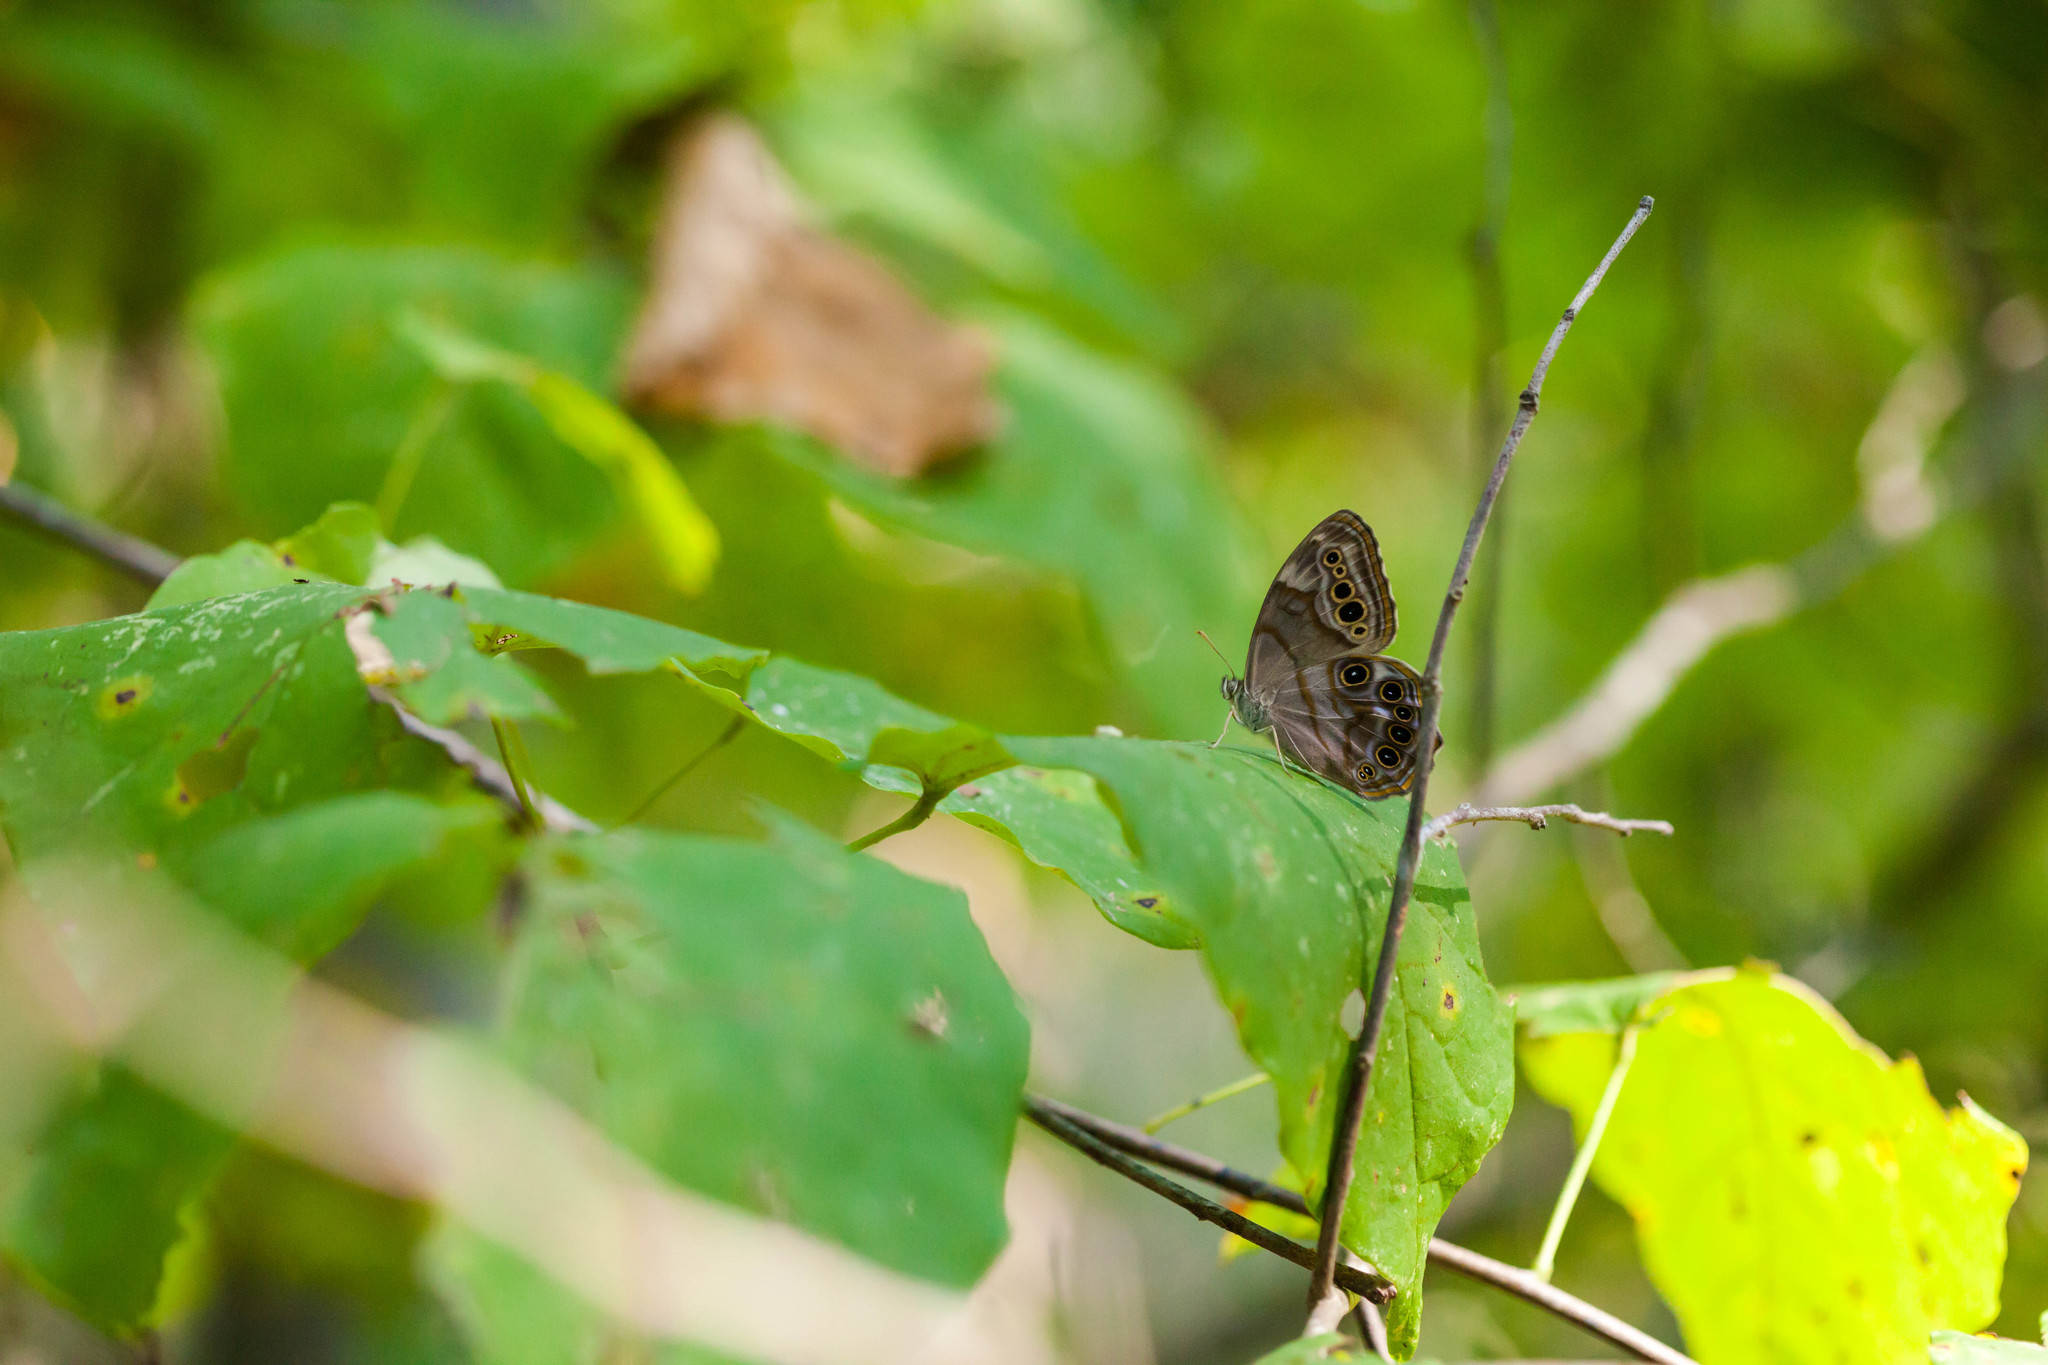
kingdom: Animalia
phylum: Arthropoda
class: Insecta
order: Lepidoptera
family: Nymphalidae
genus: Enodia
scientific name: Enodia portlandia
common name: Southern pearly-eye
